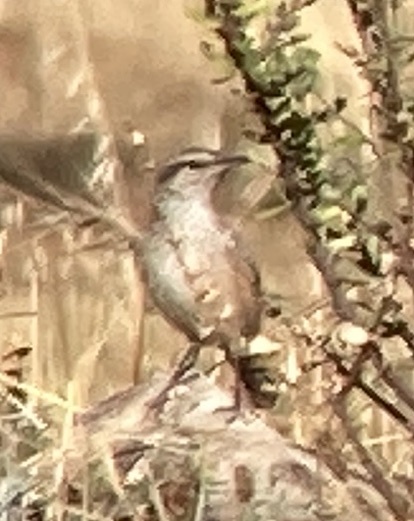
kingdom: Animalia
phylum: Chordata
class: Aves
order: Passeriformes
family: Troglodytidae
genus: Salpinctes
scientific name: Salpinctes obsoletus
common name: Rock wren
